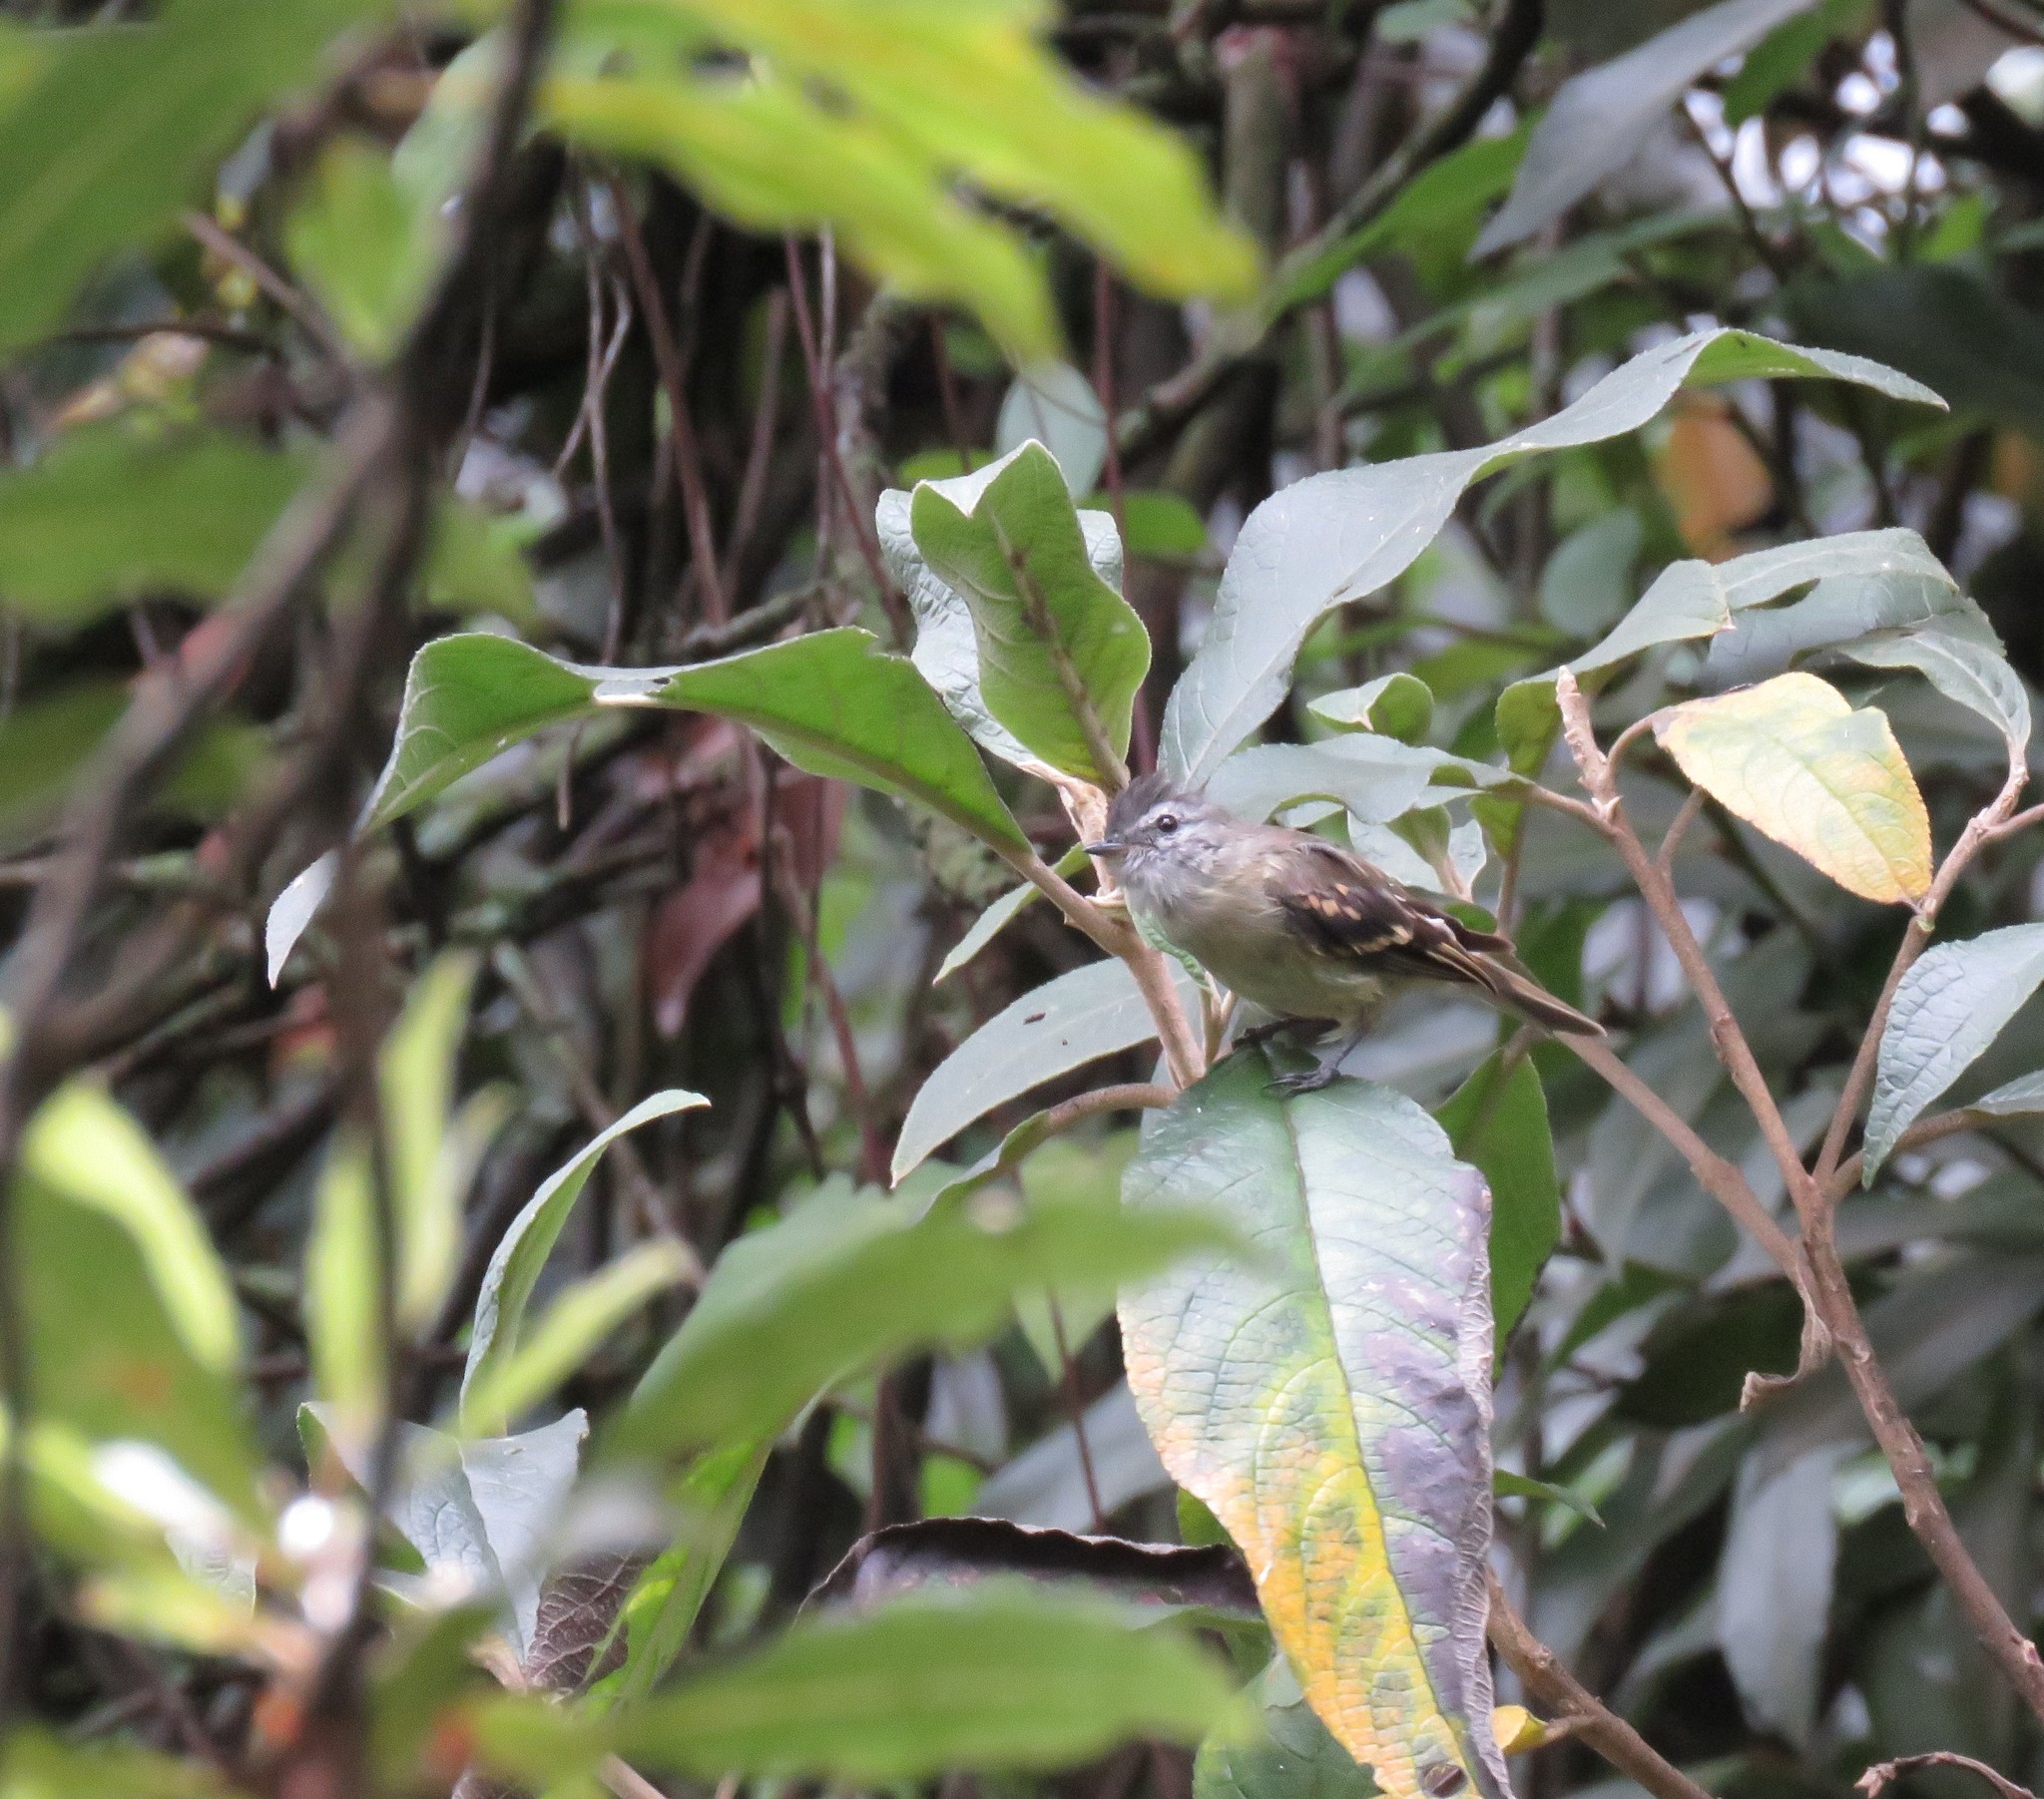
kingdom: Animalia
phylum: Chordata
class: Aves
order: Passeriformes
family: Tyrannidae
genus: Phyllomyias
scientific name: Phyllomyias uropygialis
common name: Tawny-rumped tyrannulet
